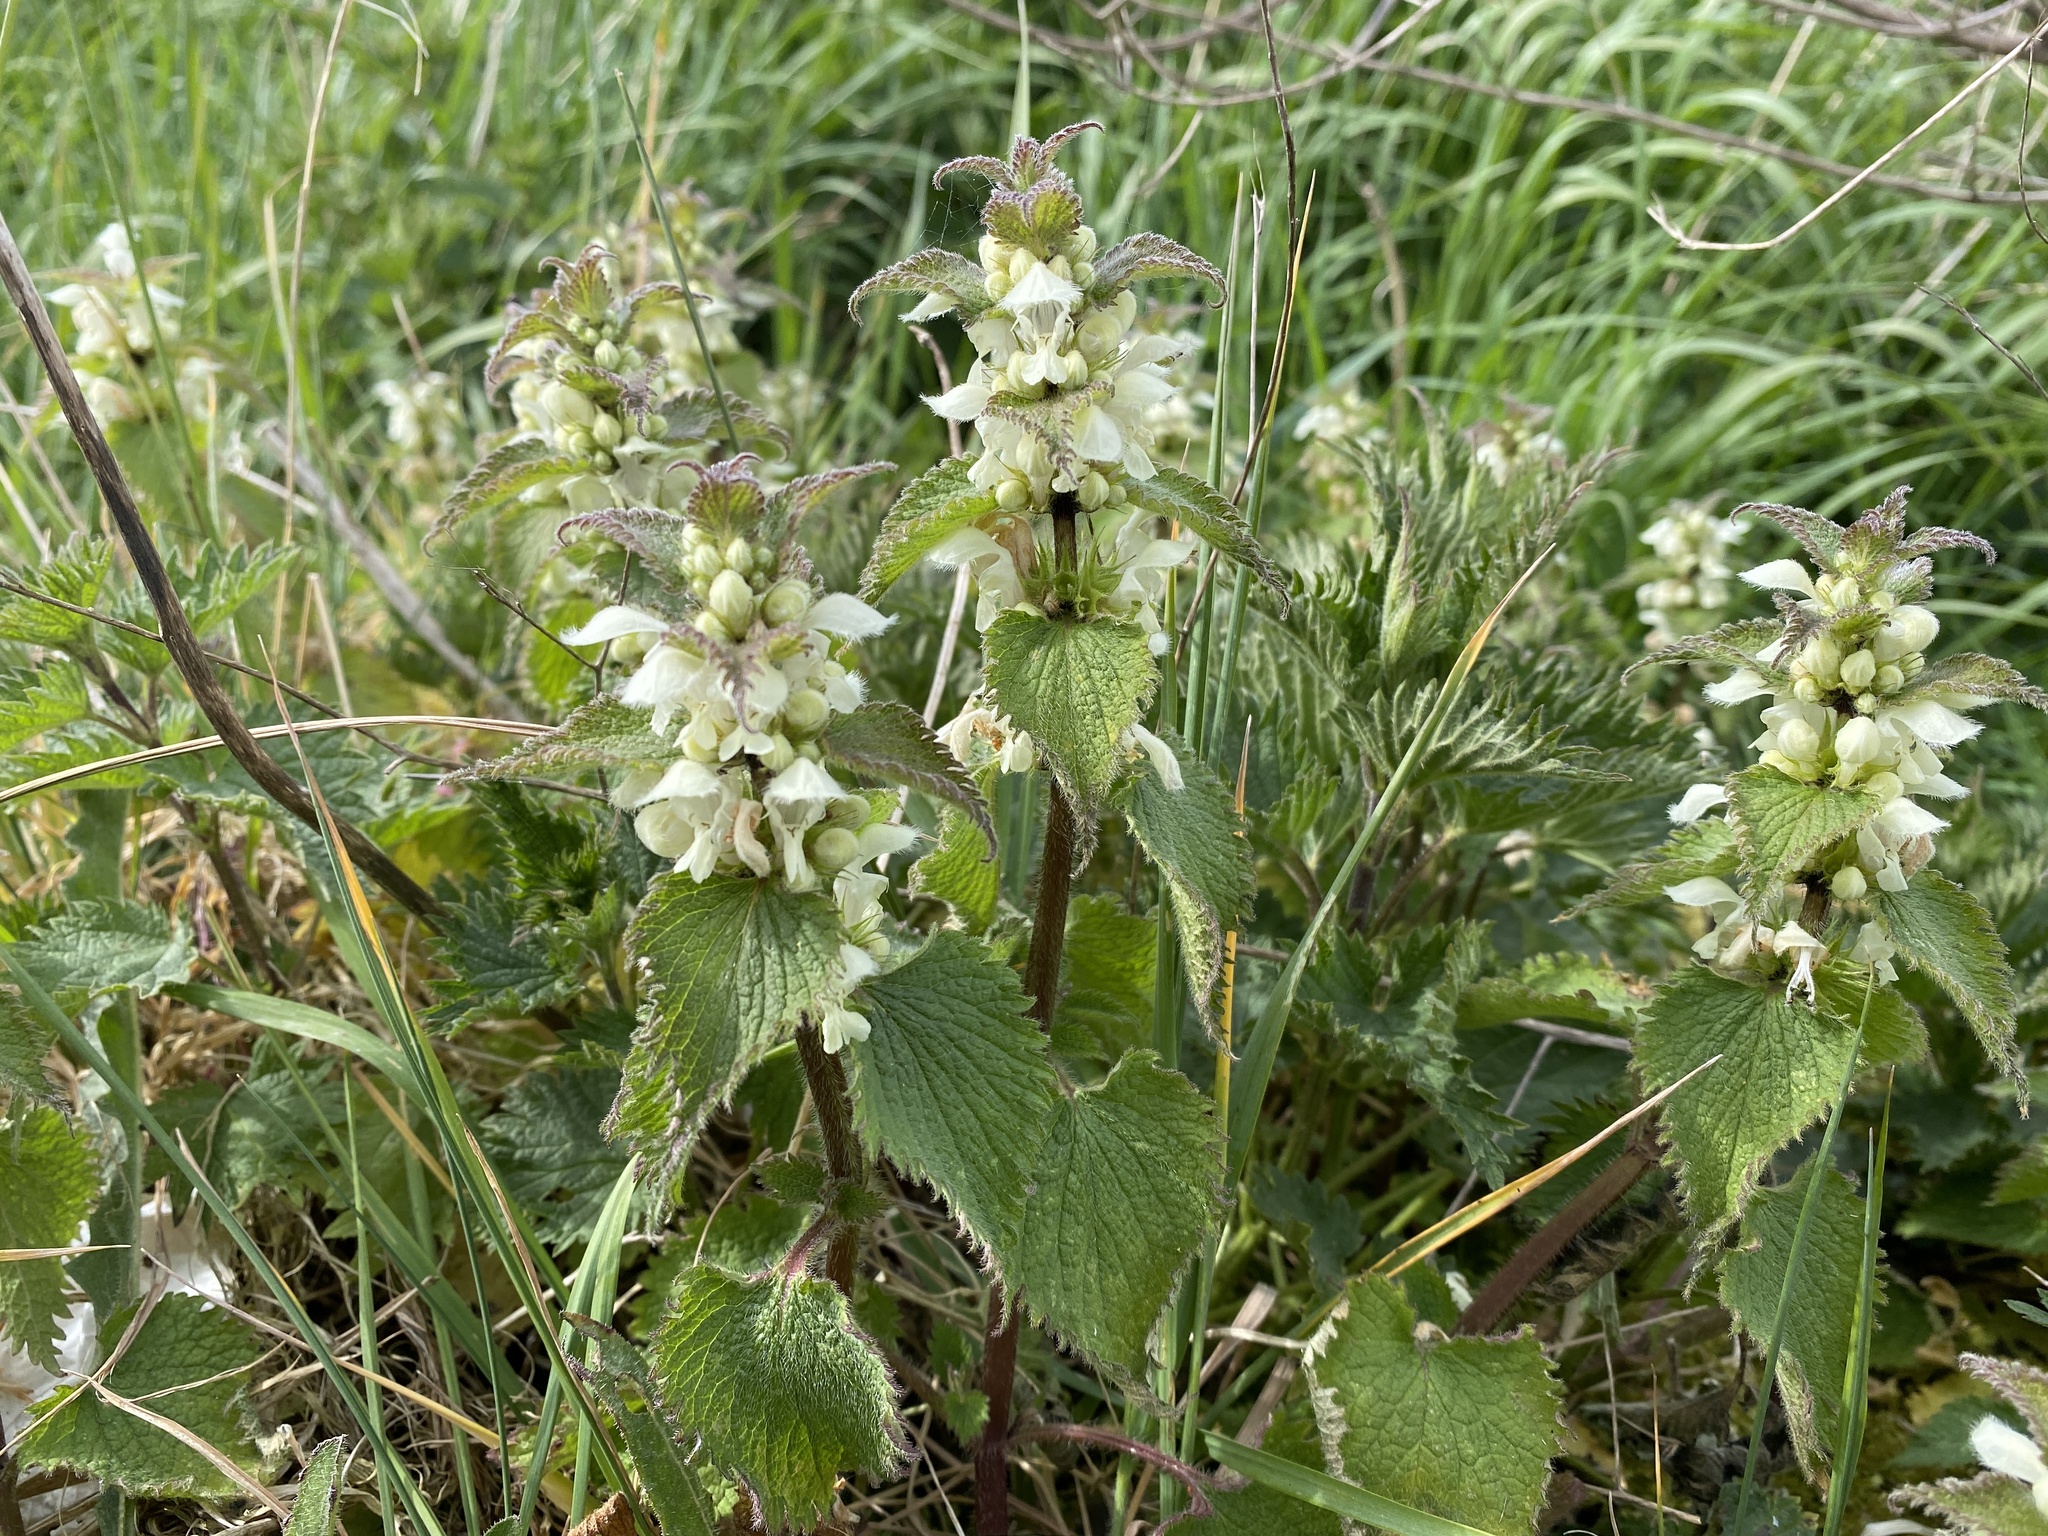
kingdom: Plantae
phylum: Tracheophyta
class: Magnoliopsida
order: Lamiales
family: Lamiaceae
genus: Lamium
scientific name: Lamium album
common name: White dead-nettle
